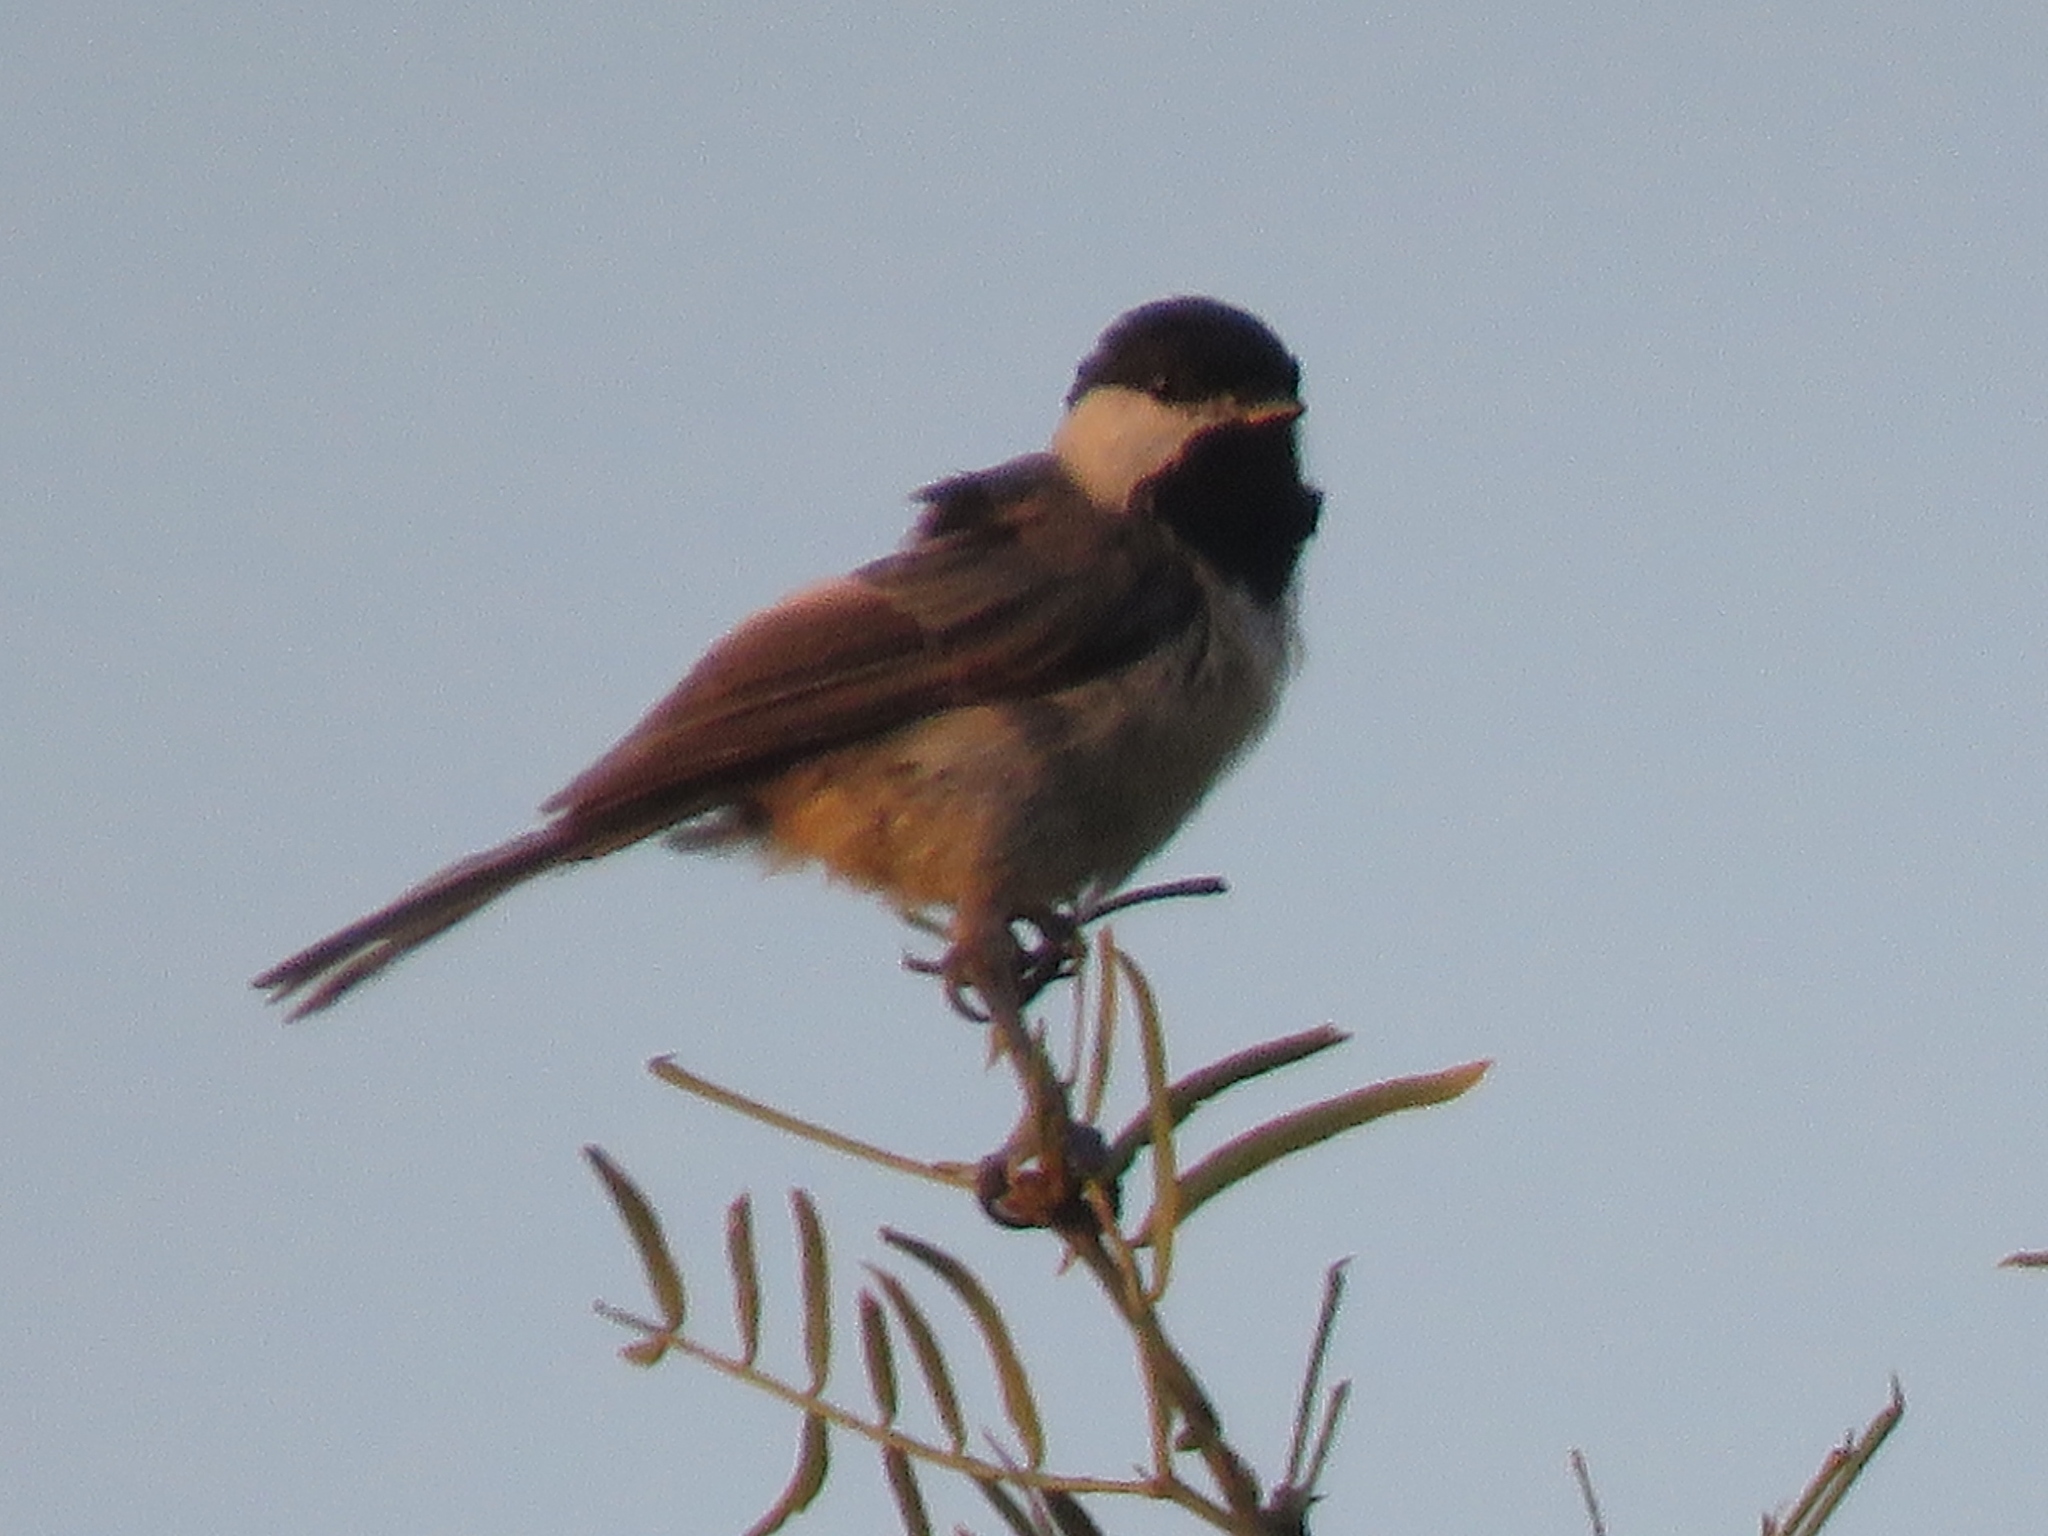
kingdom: Animalia
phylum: Chordata
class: Aves
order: Passeriformes
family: Paridae
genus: Poecile
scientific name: Poecile carolinensis
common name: Carolina chickadee
